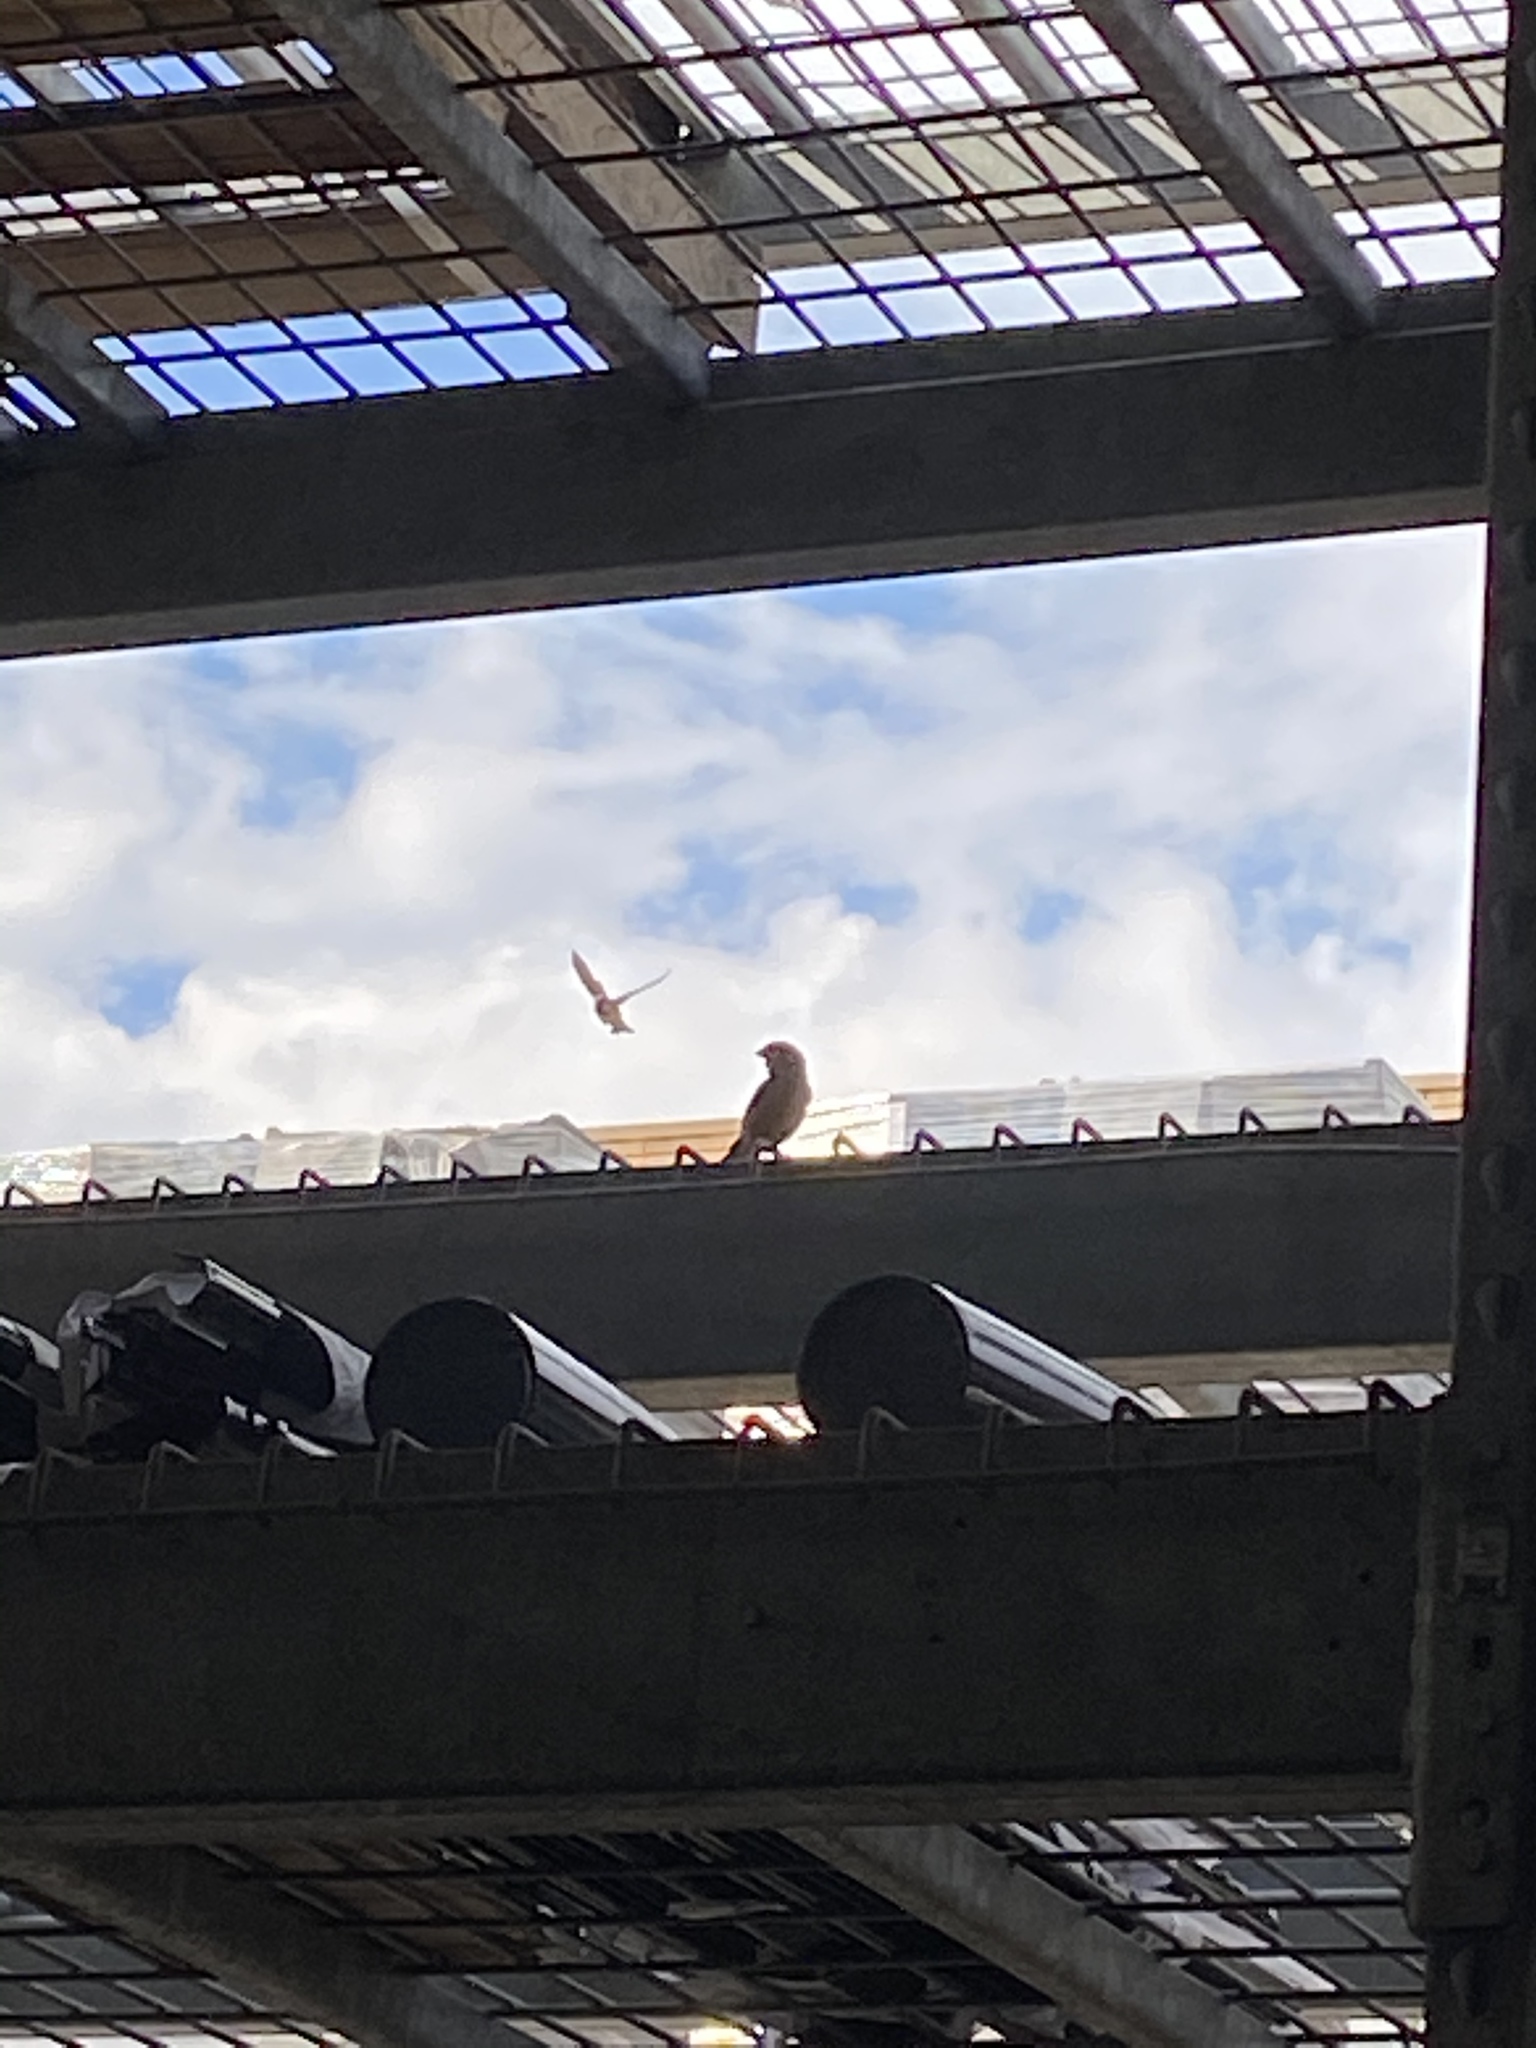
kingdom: Animalia
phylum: Chordata
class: Aves
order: Passeriformes
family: Passeridae
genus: Passer
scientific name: Passer domesticus
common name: House sparrow
